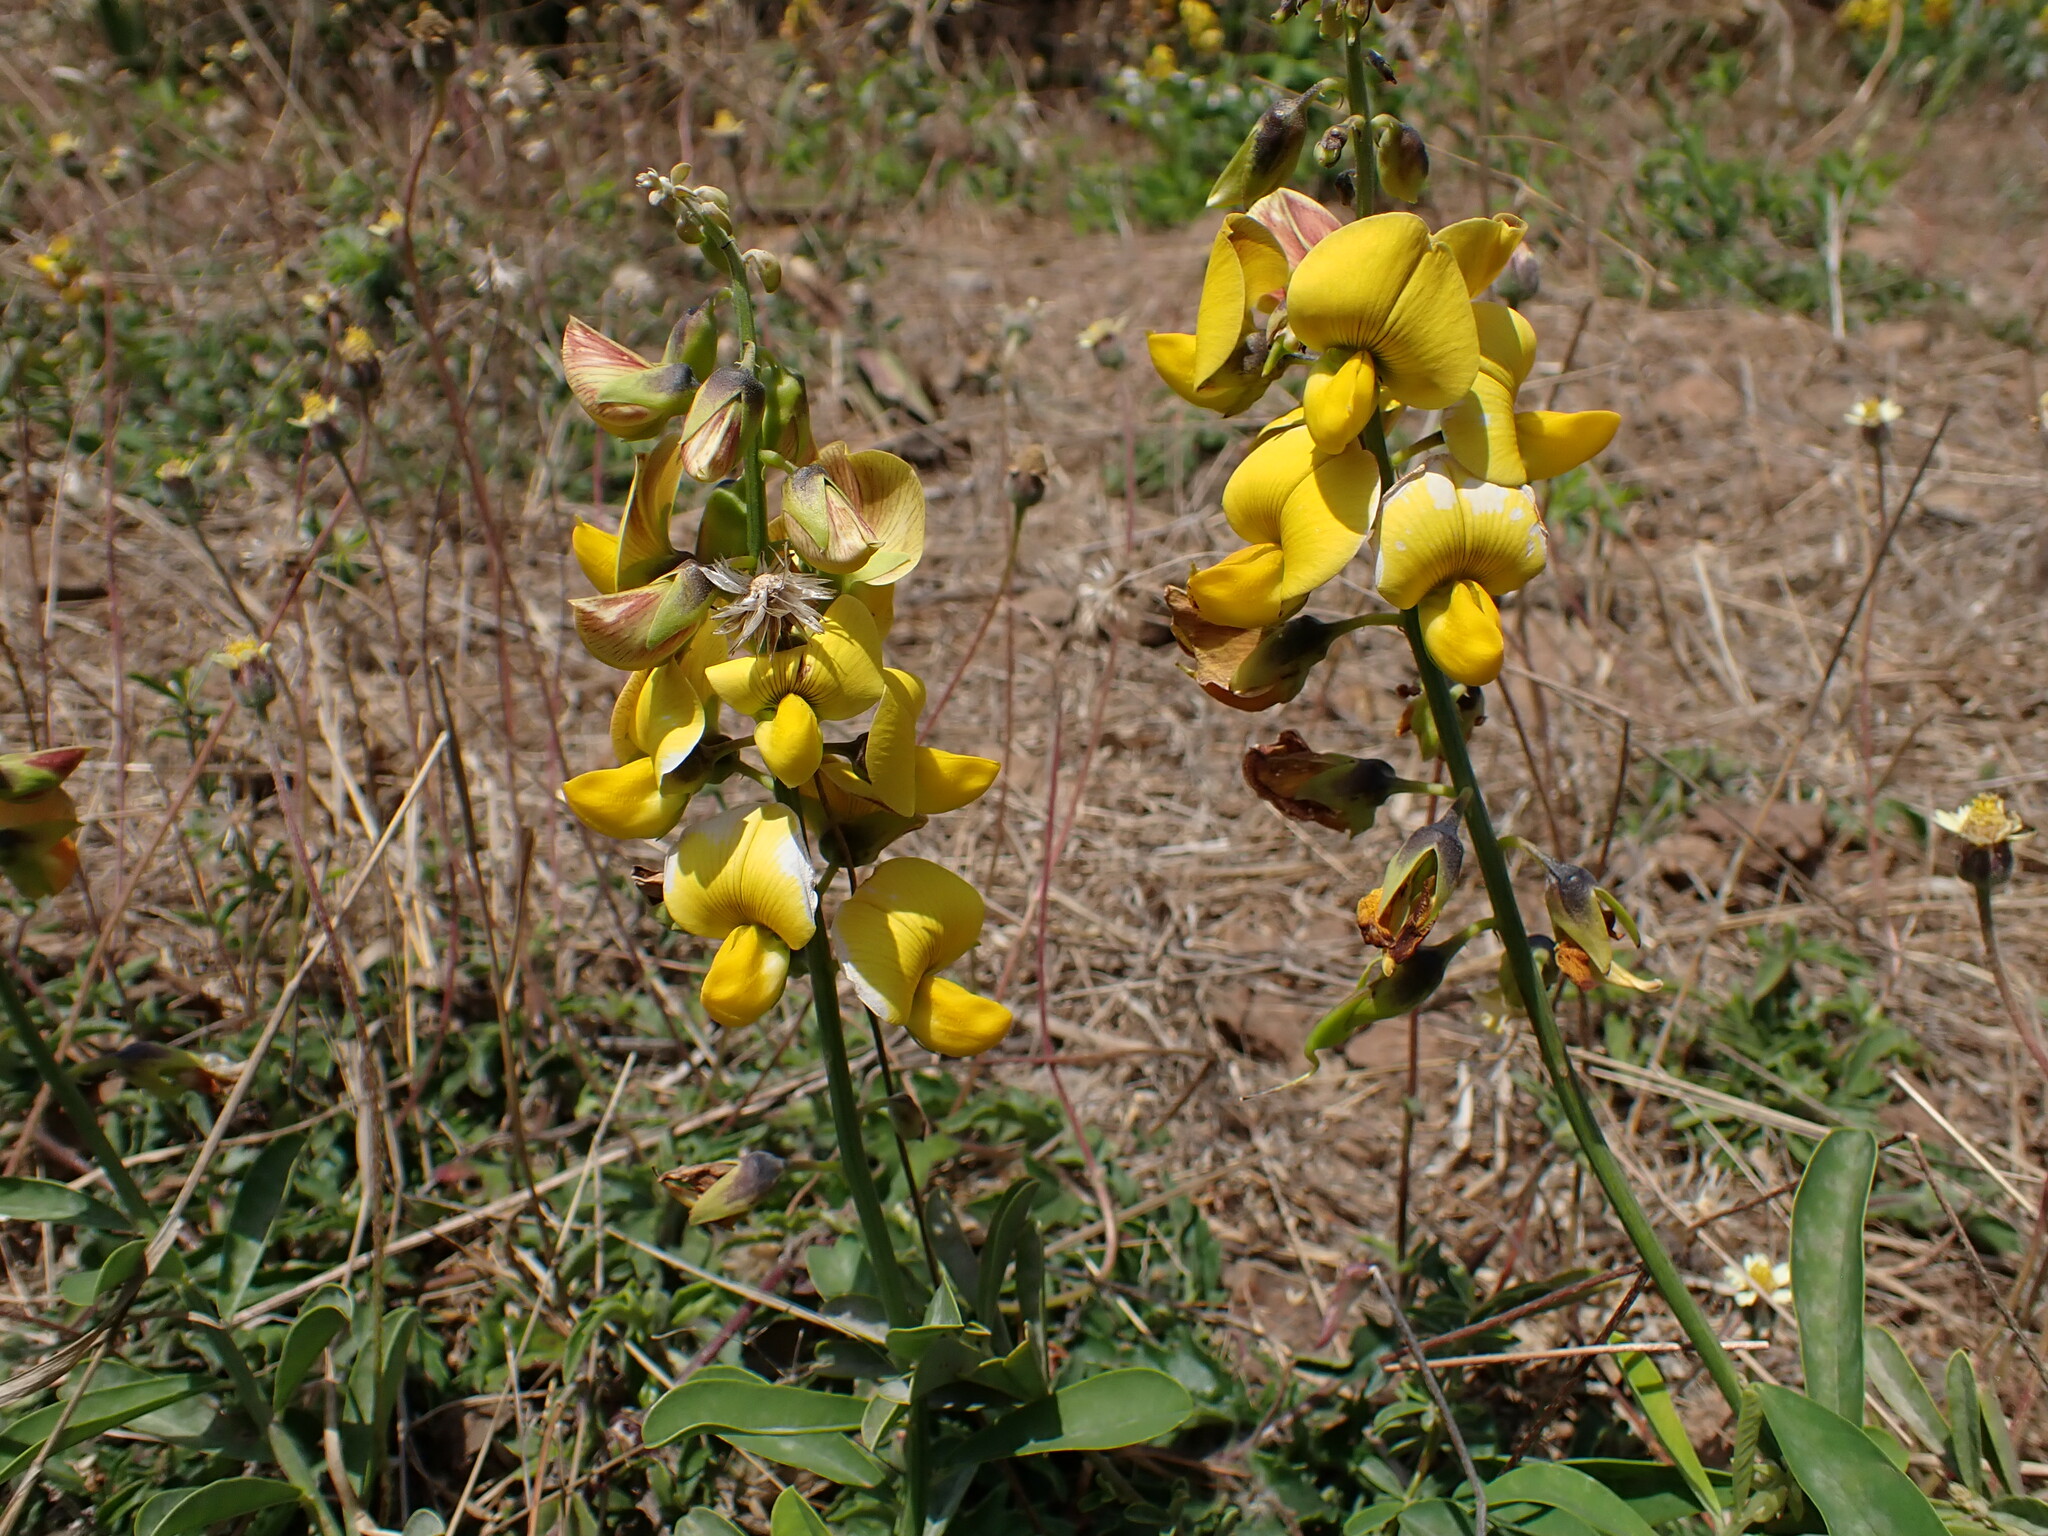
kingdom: Plantae
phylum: Tracheophyta
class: Magnoliopsida
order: Fabales
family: Fabaceae
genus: Crotalaria
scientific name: Crotalaria retusa
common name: Rattleweed
